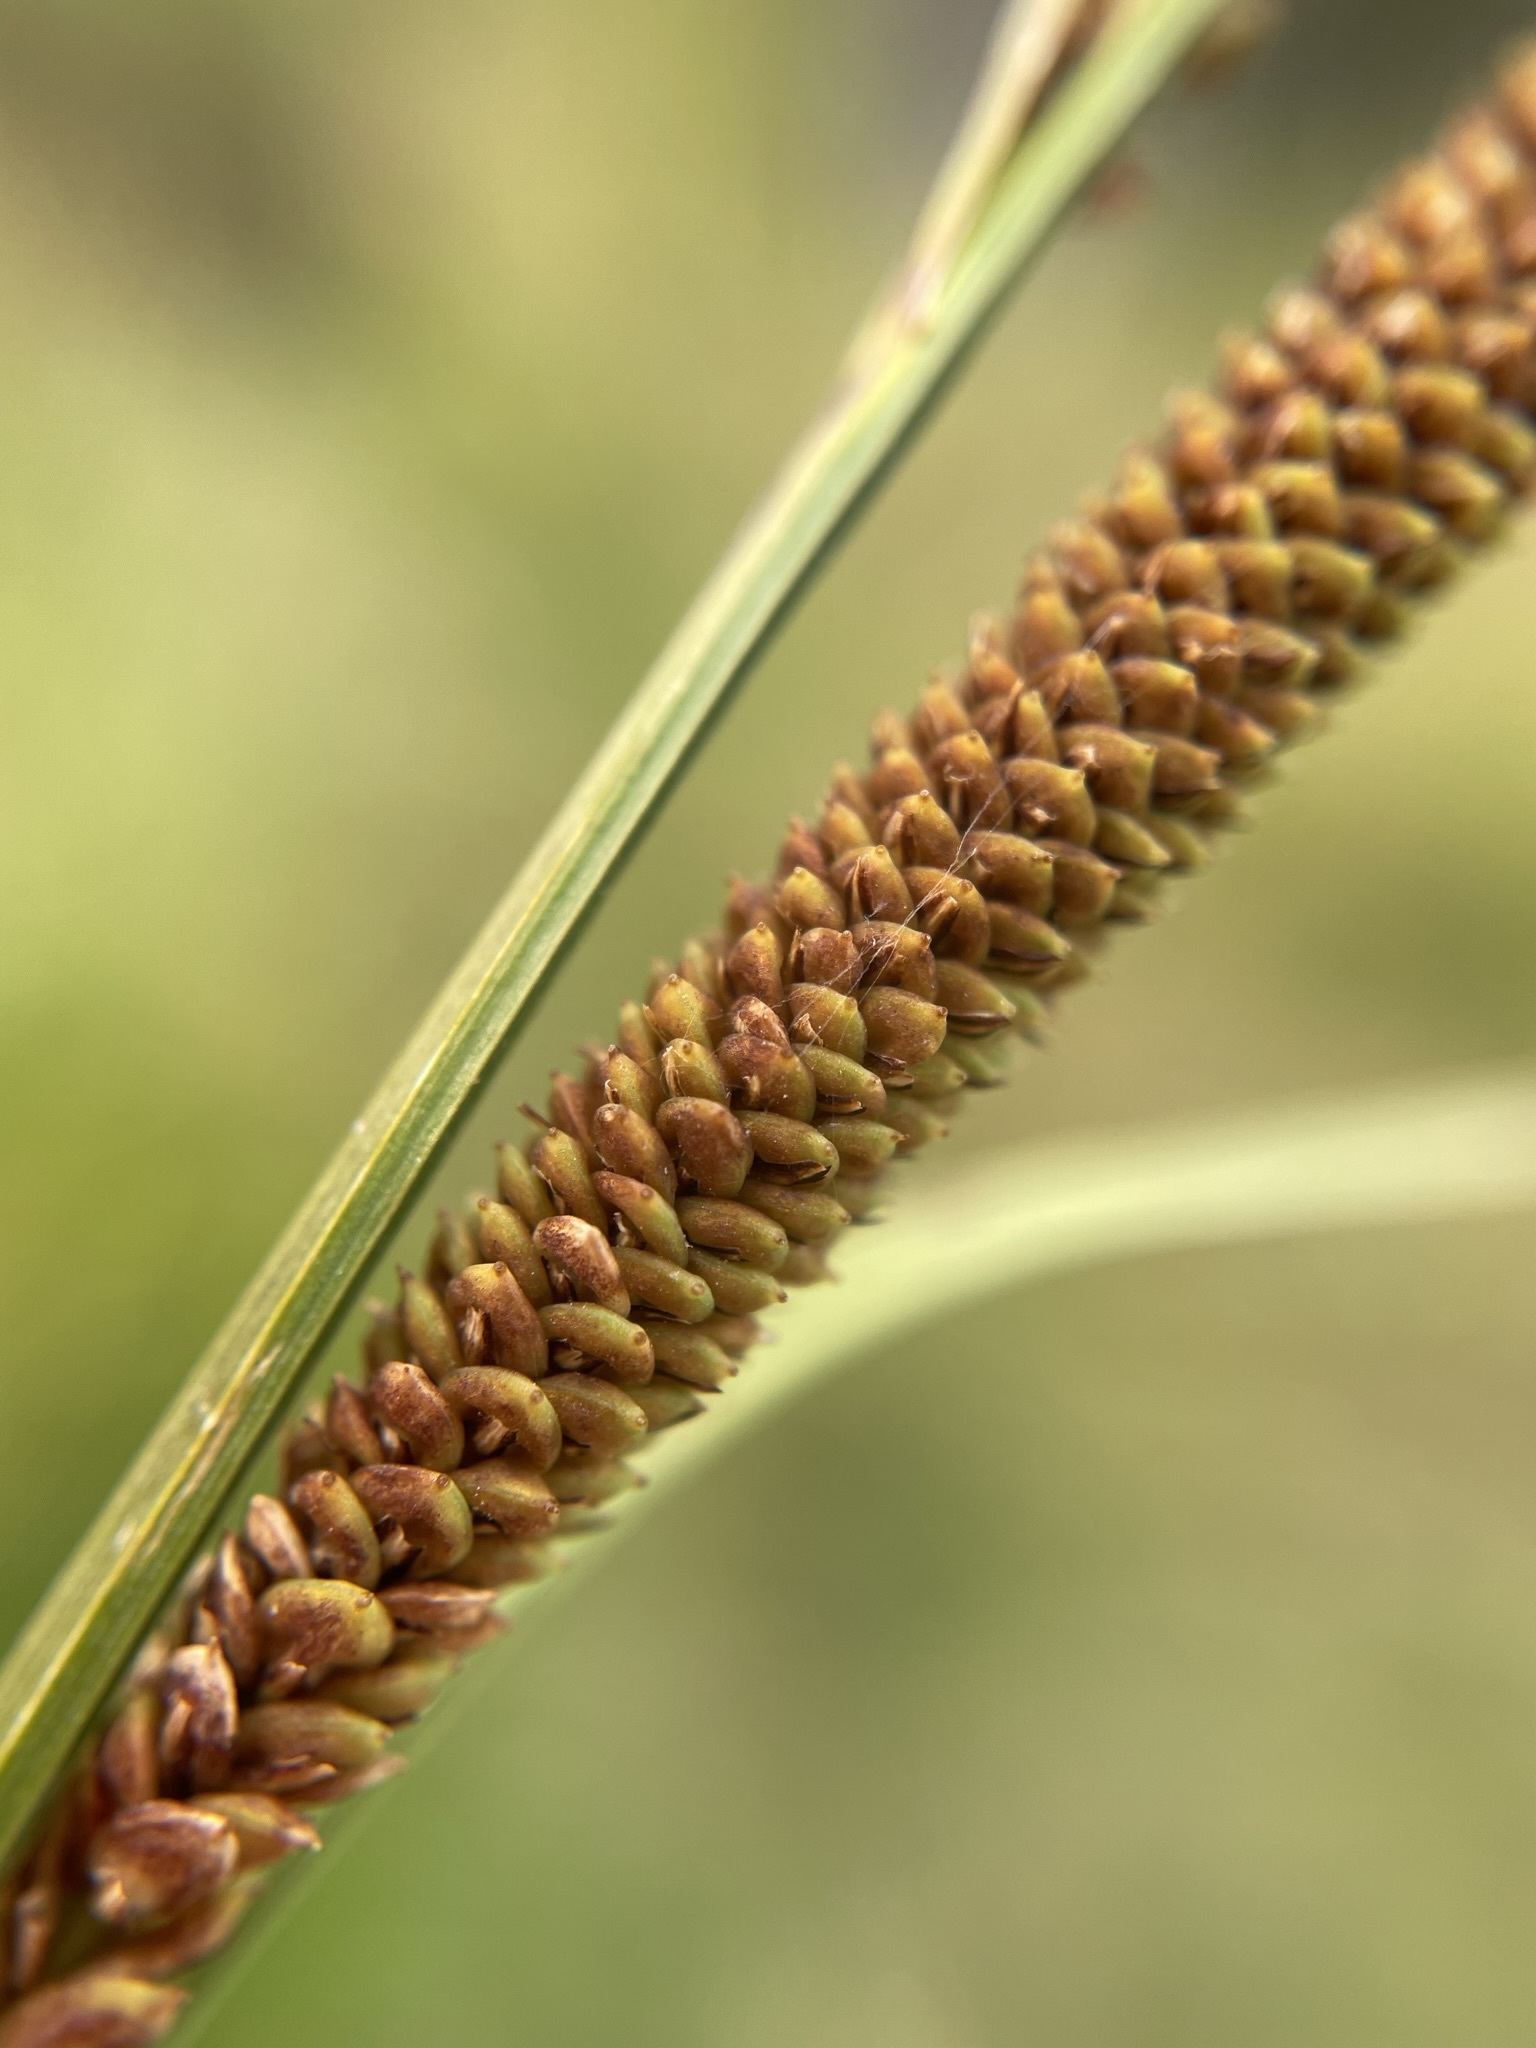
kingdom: Plantae
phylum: Tracheophyta
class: Liliopsida
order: Poales
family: Cyperaceae
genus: Carex
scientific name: Carex aquatilis
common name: Water sedge
